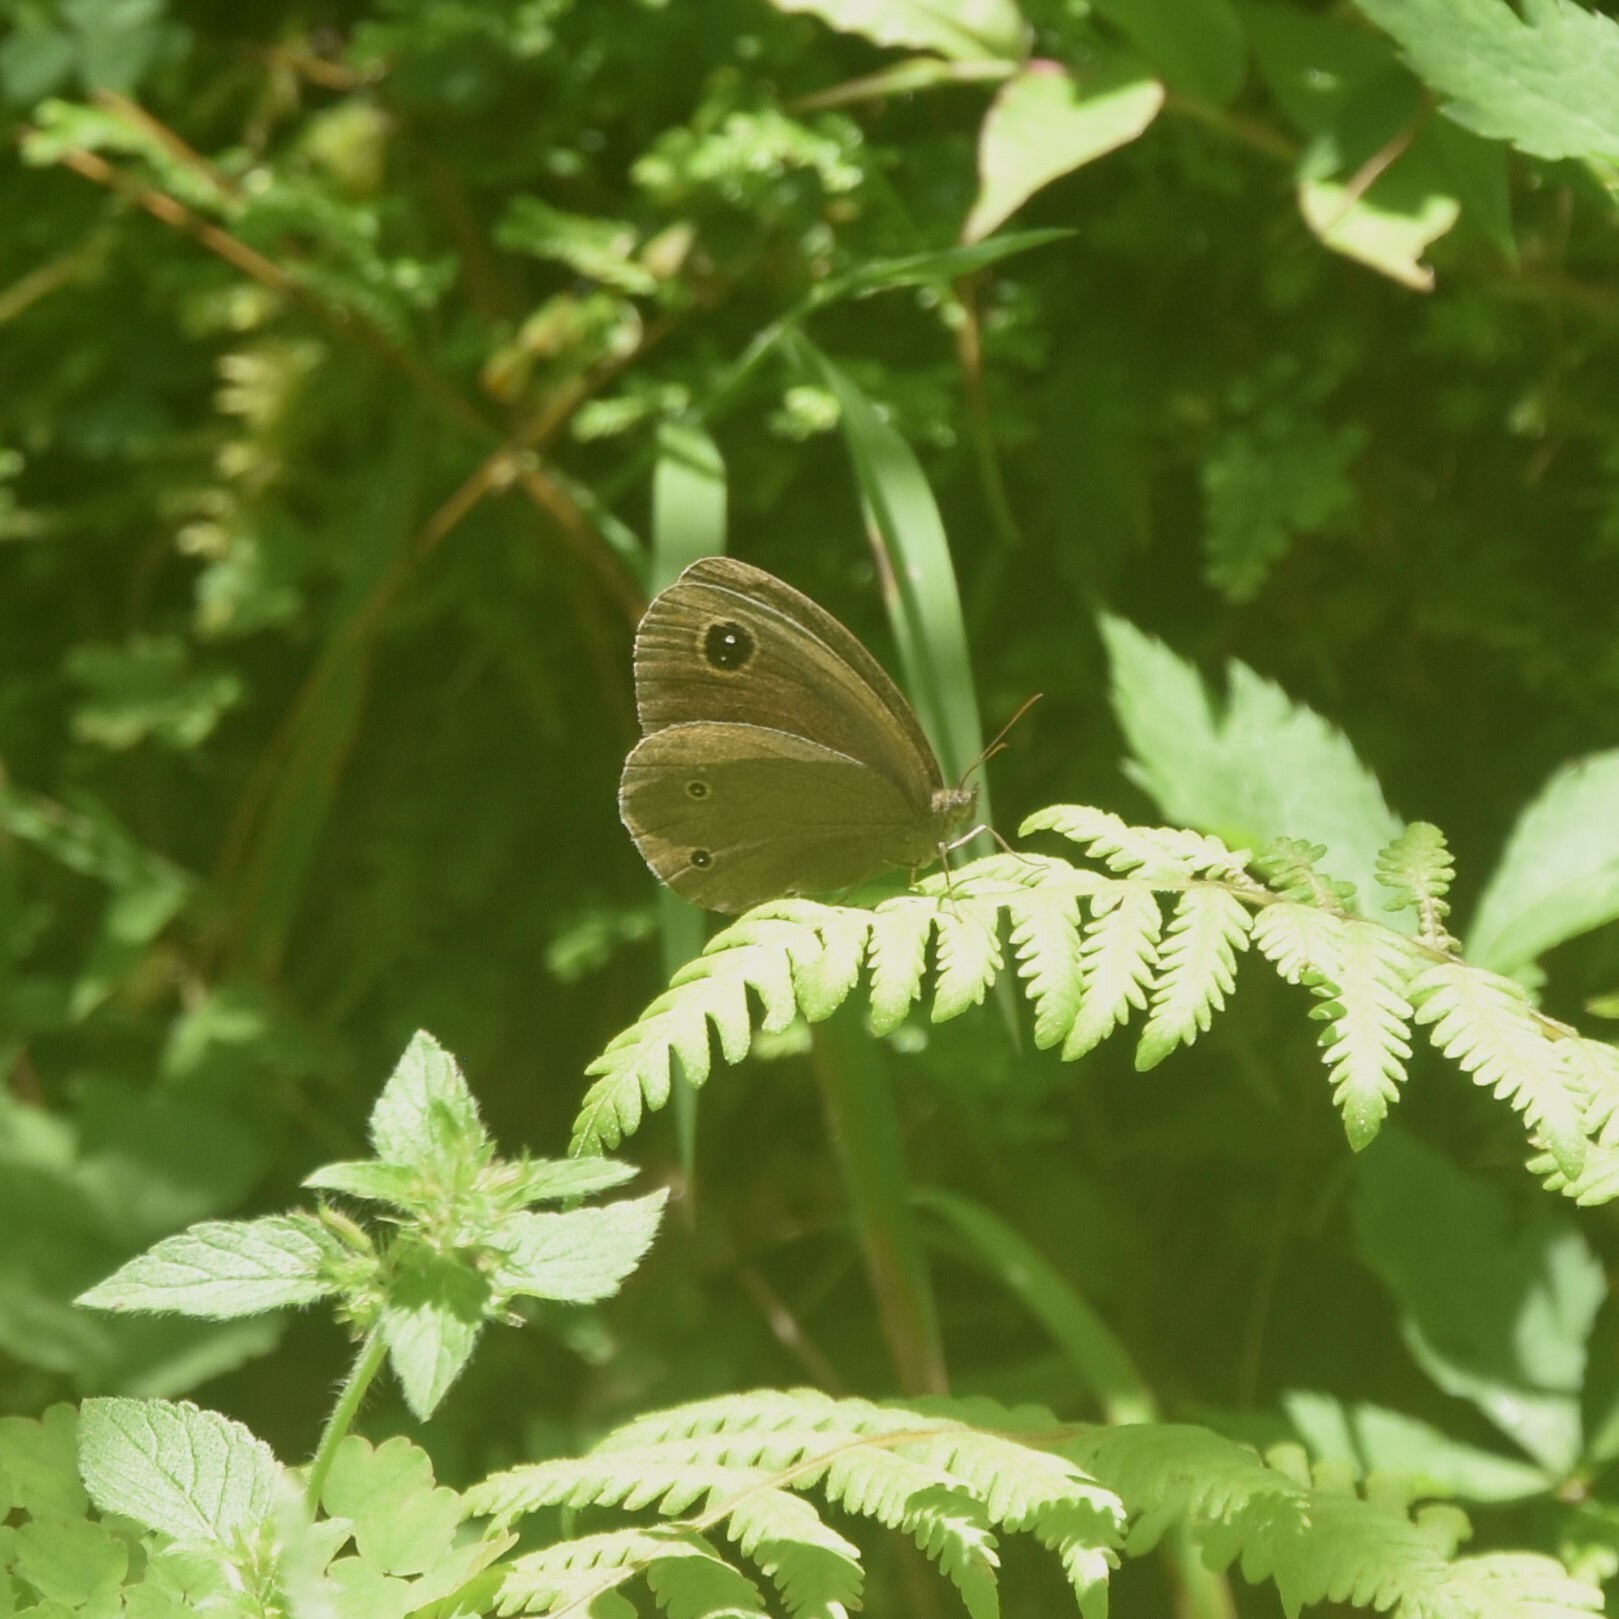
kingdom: Animalia
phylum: Arthropoda
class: Insecta
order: Lepidoptera
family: Nymphalidae
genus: Callerebia
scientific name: Callerebia nirmala
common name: Common argus
